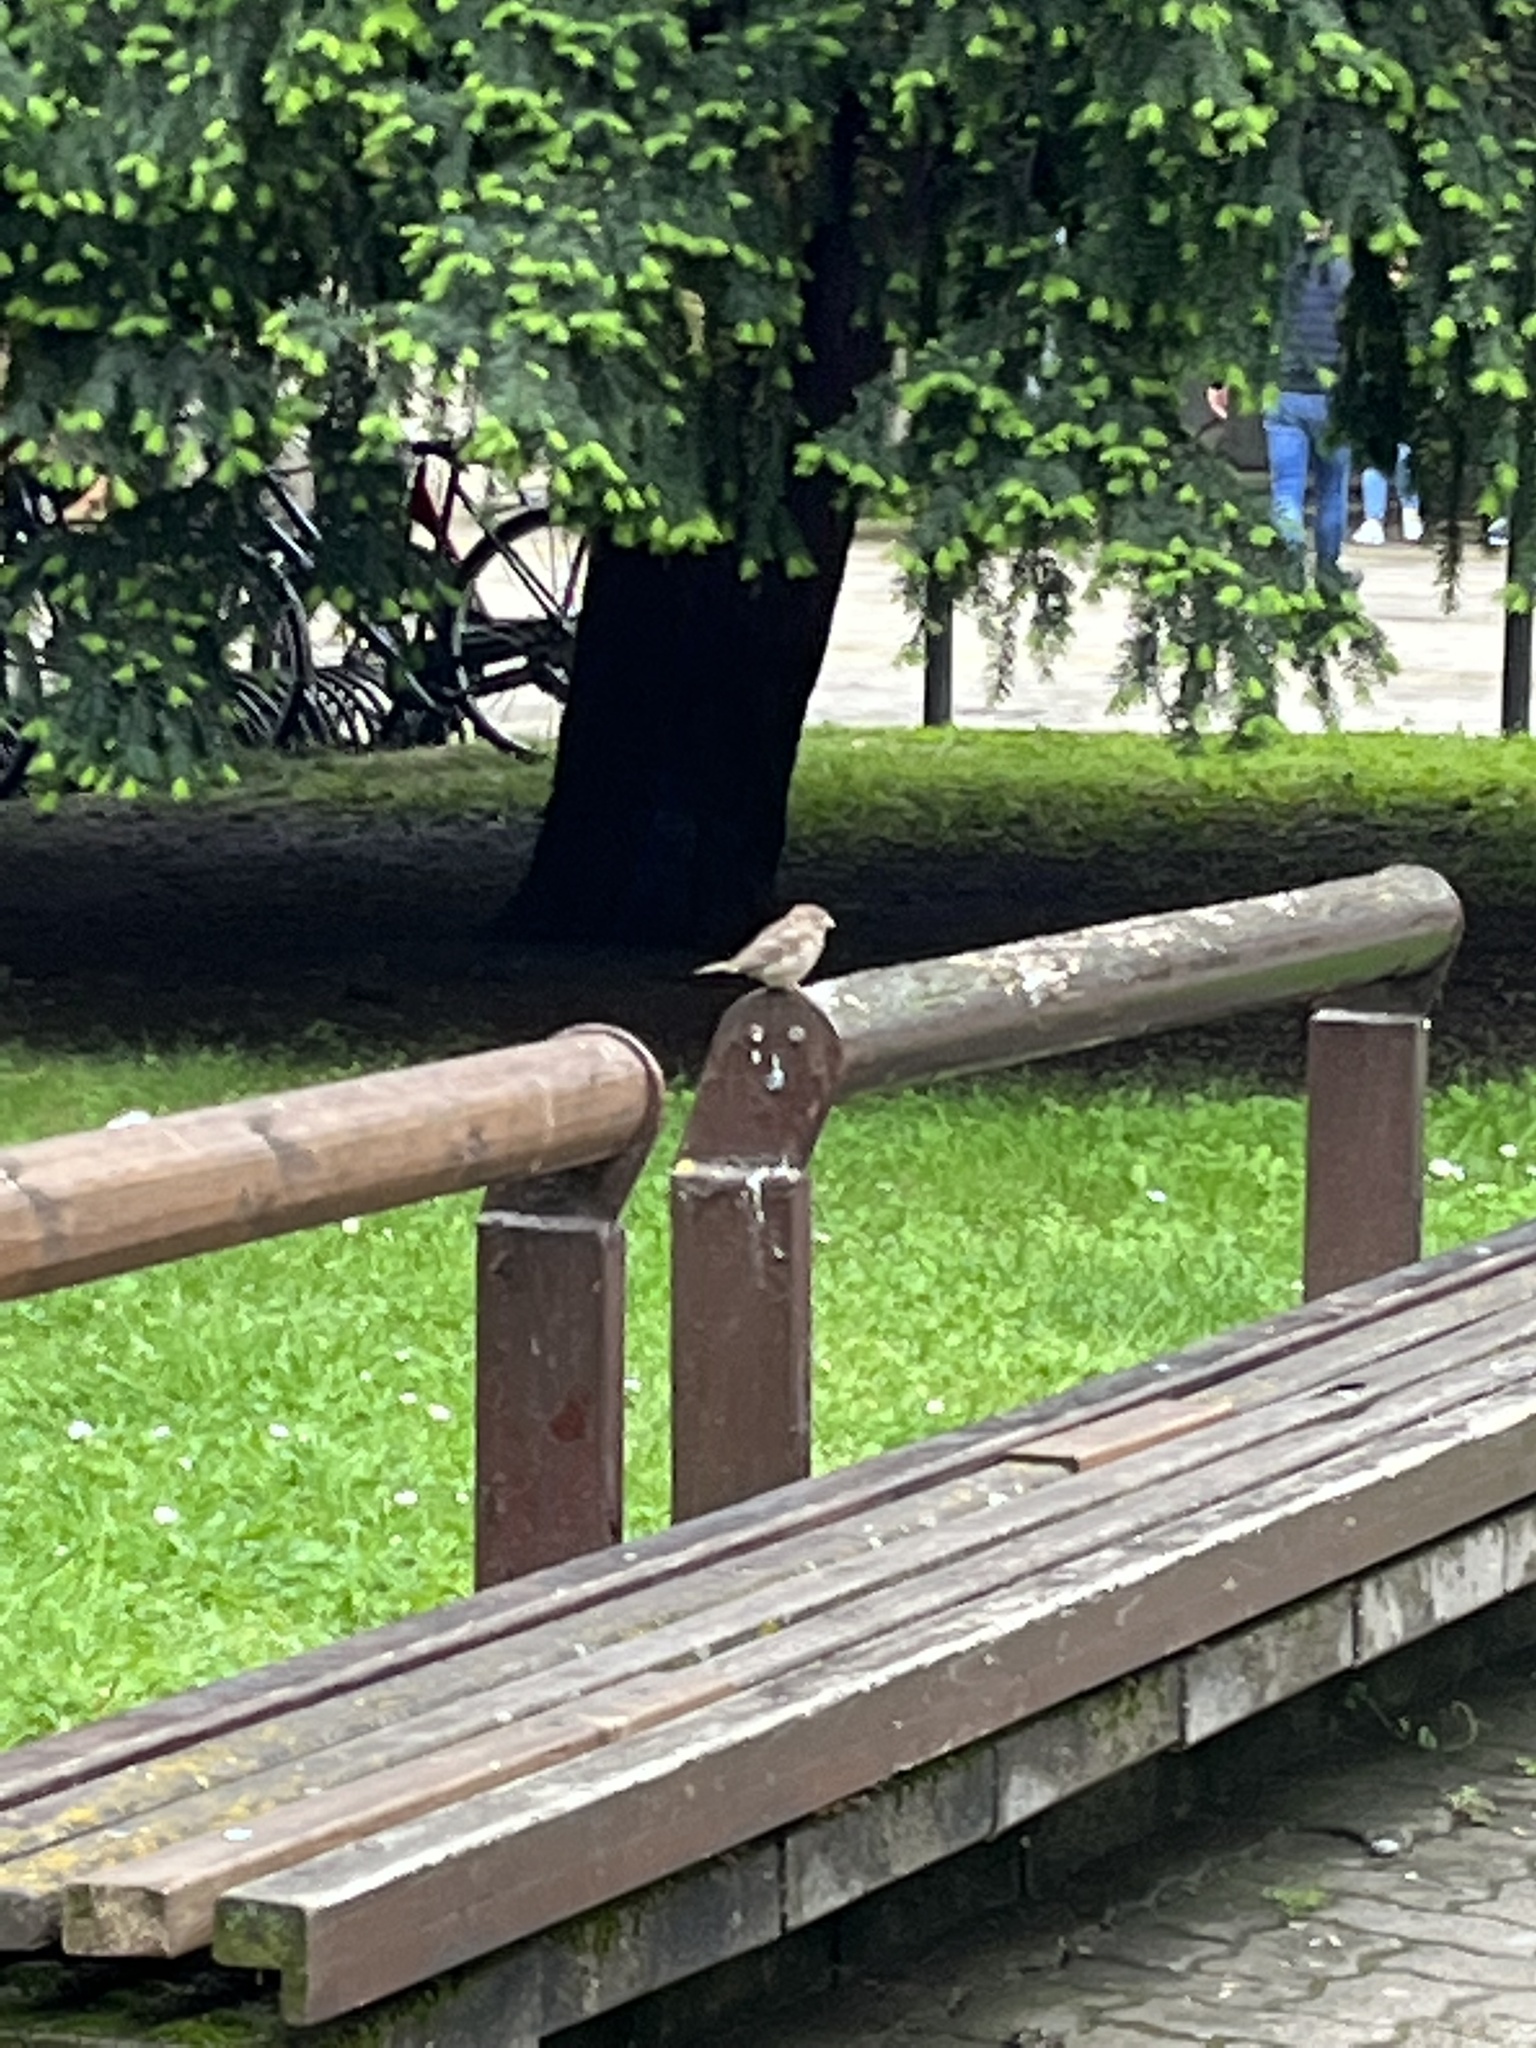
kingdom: Animalia
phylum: Chordata
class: Aves
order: Passeriformes
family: Passeridae
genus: Passer
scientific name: Passer domesticus
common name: House sparrow
